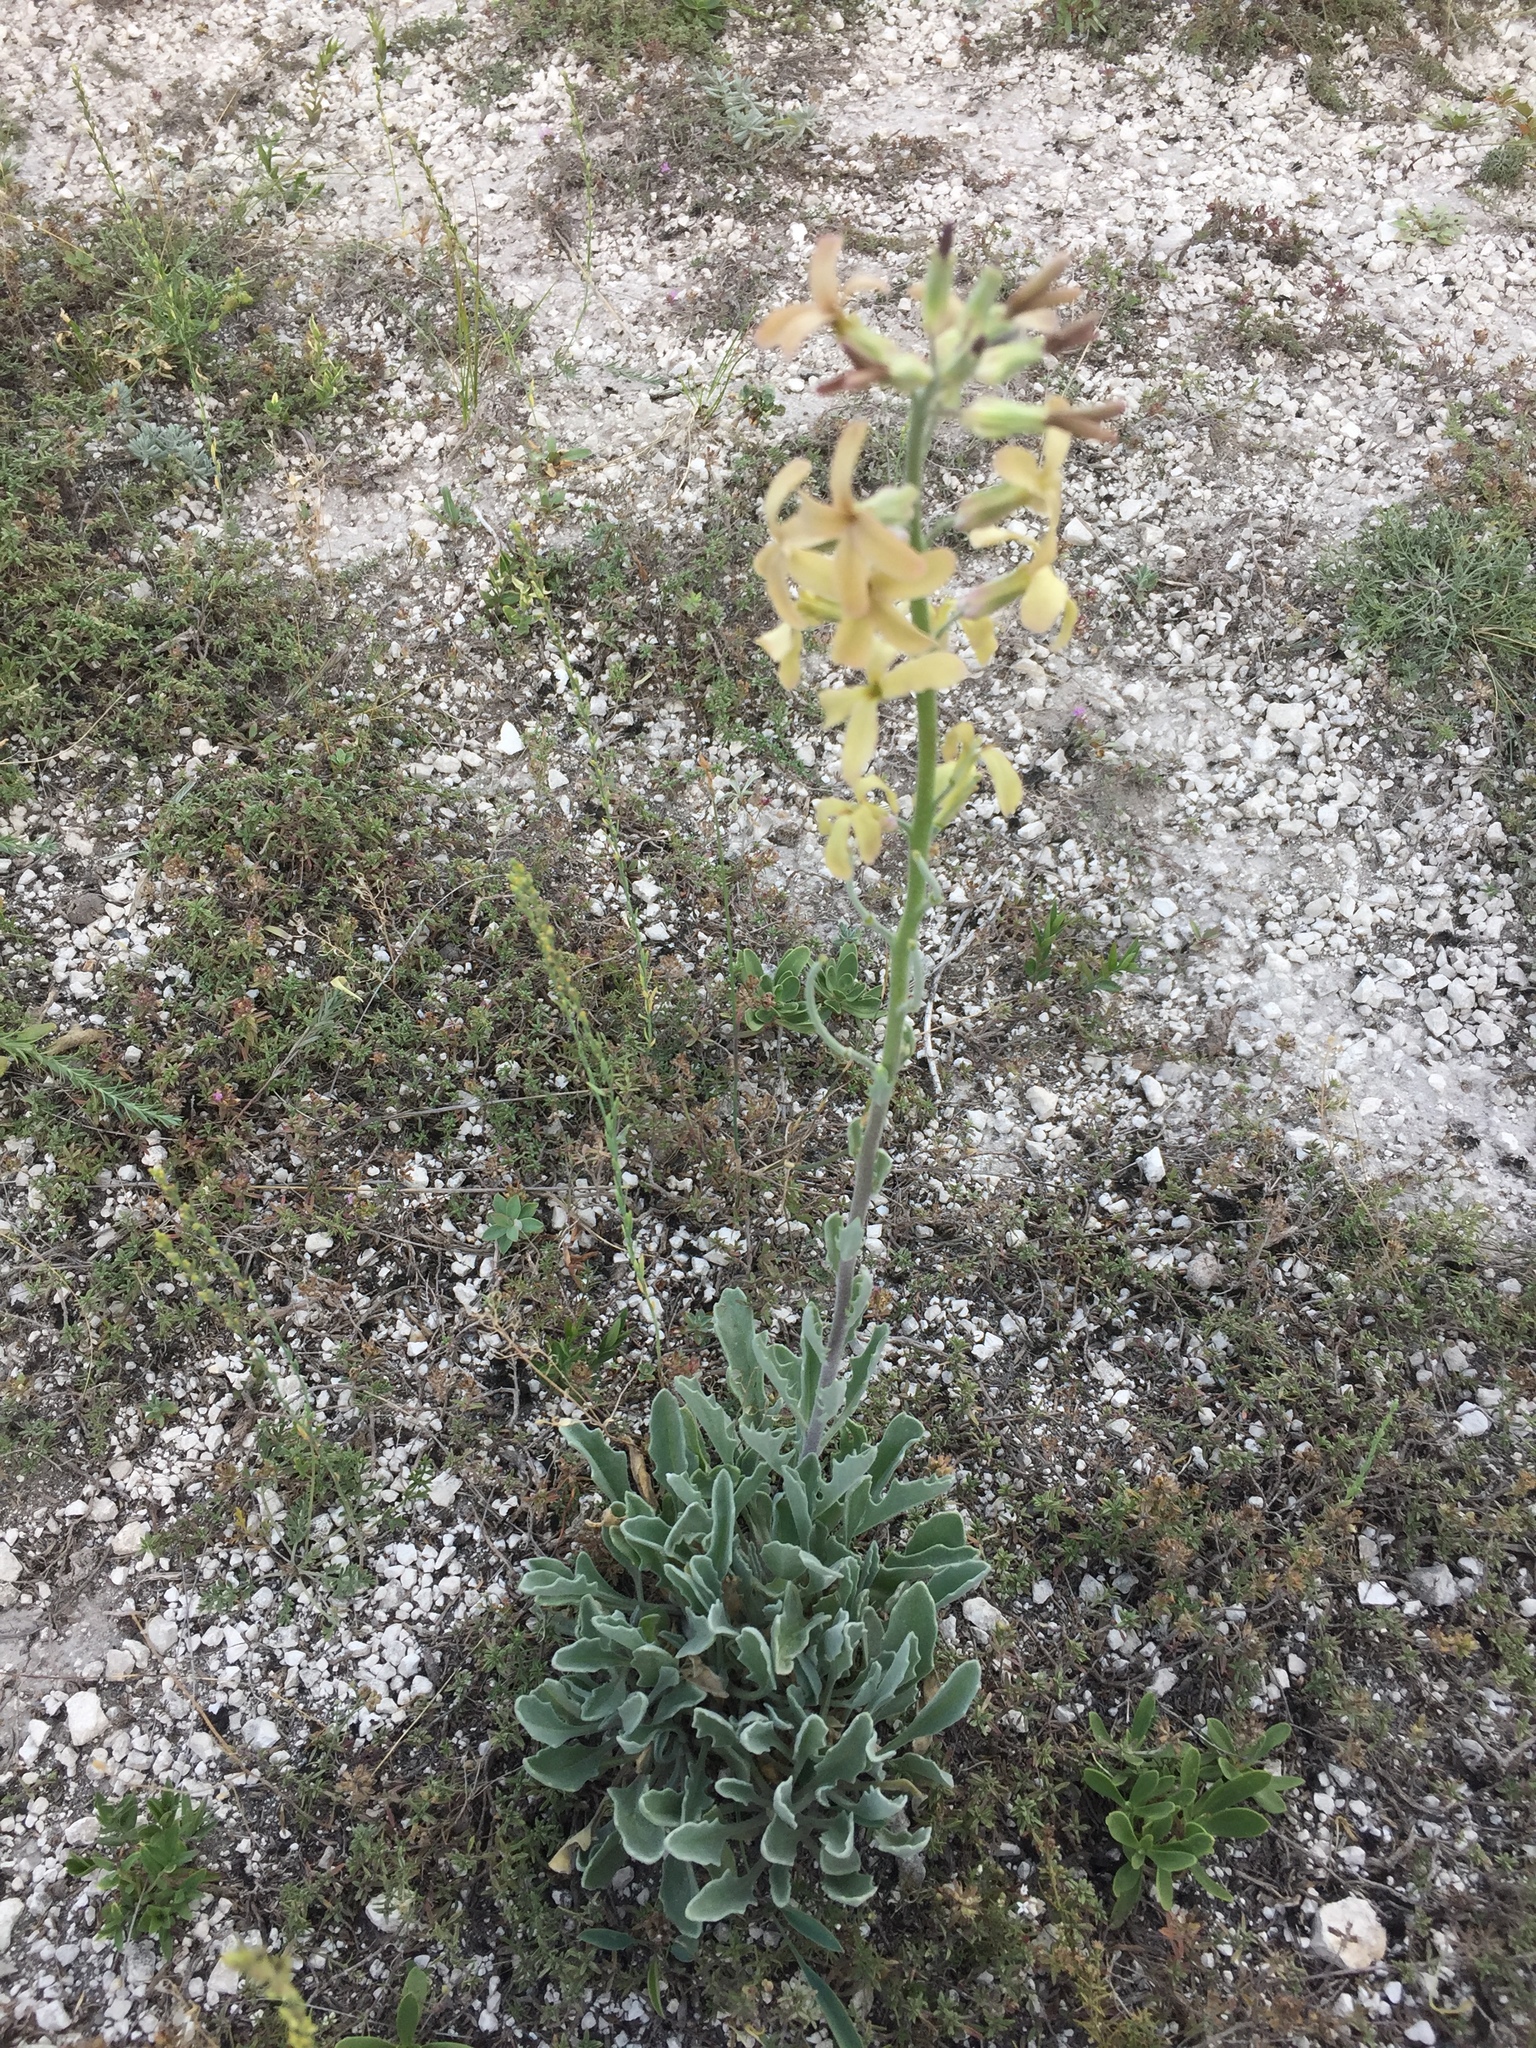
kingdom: Plantae
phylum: Tracheophyta
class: Magnoliopsida
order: Brassicales
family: Brassicaceae
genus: Matthiola
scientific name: Matthiola fragrans
